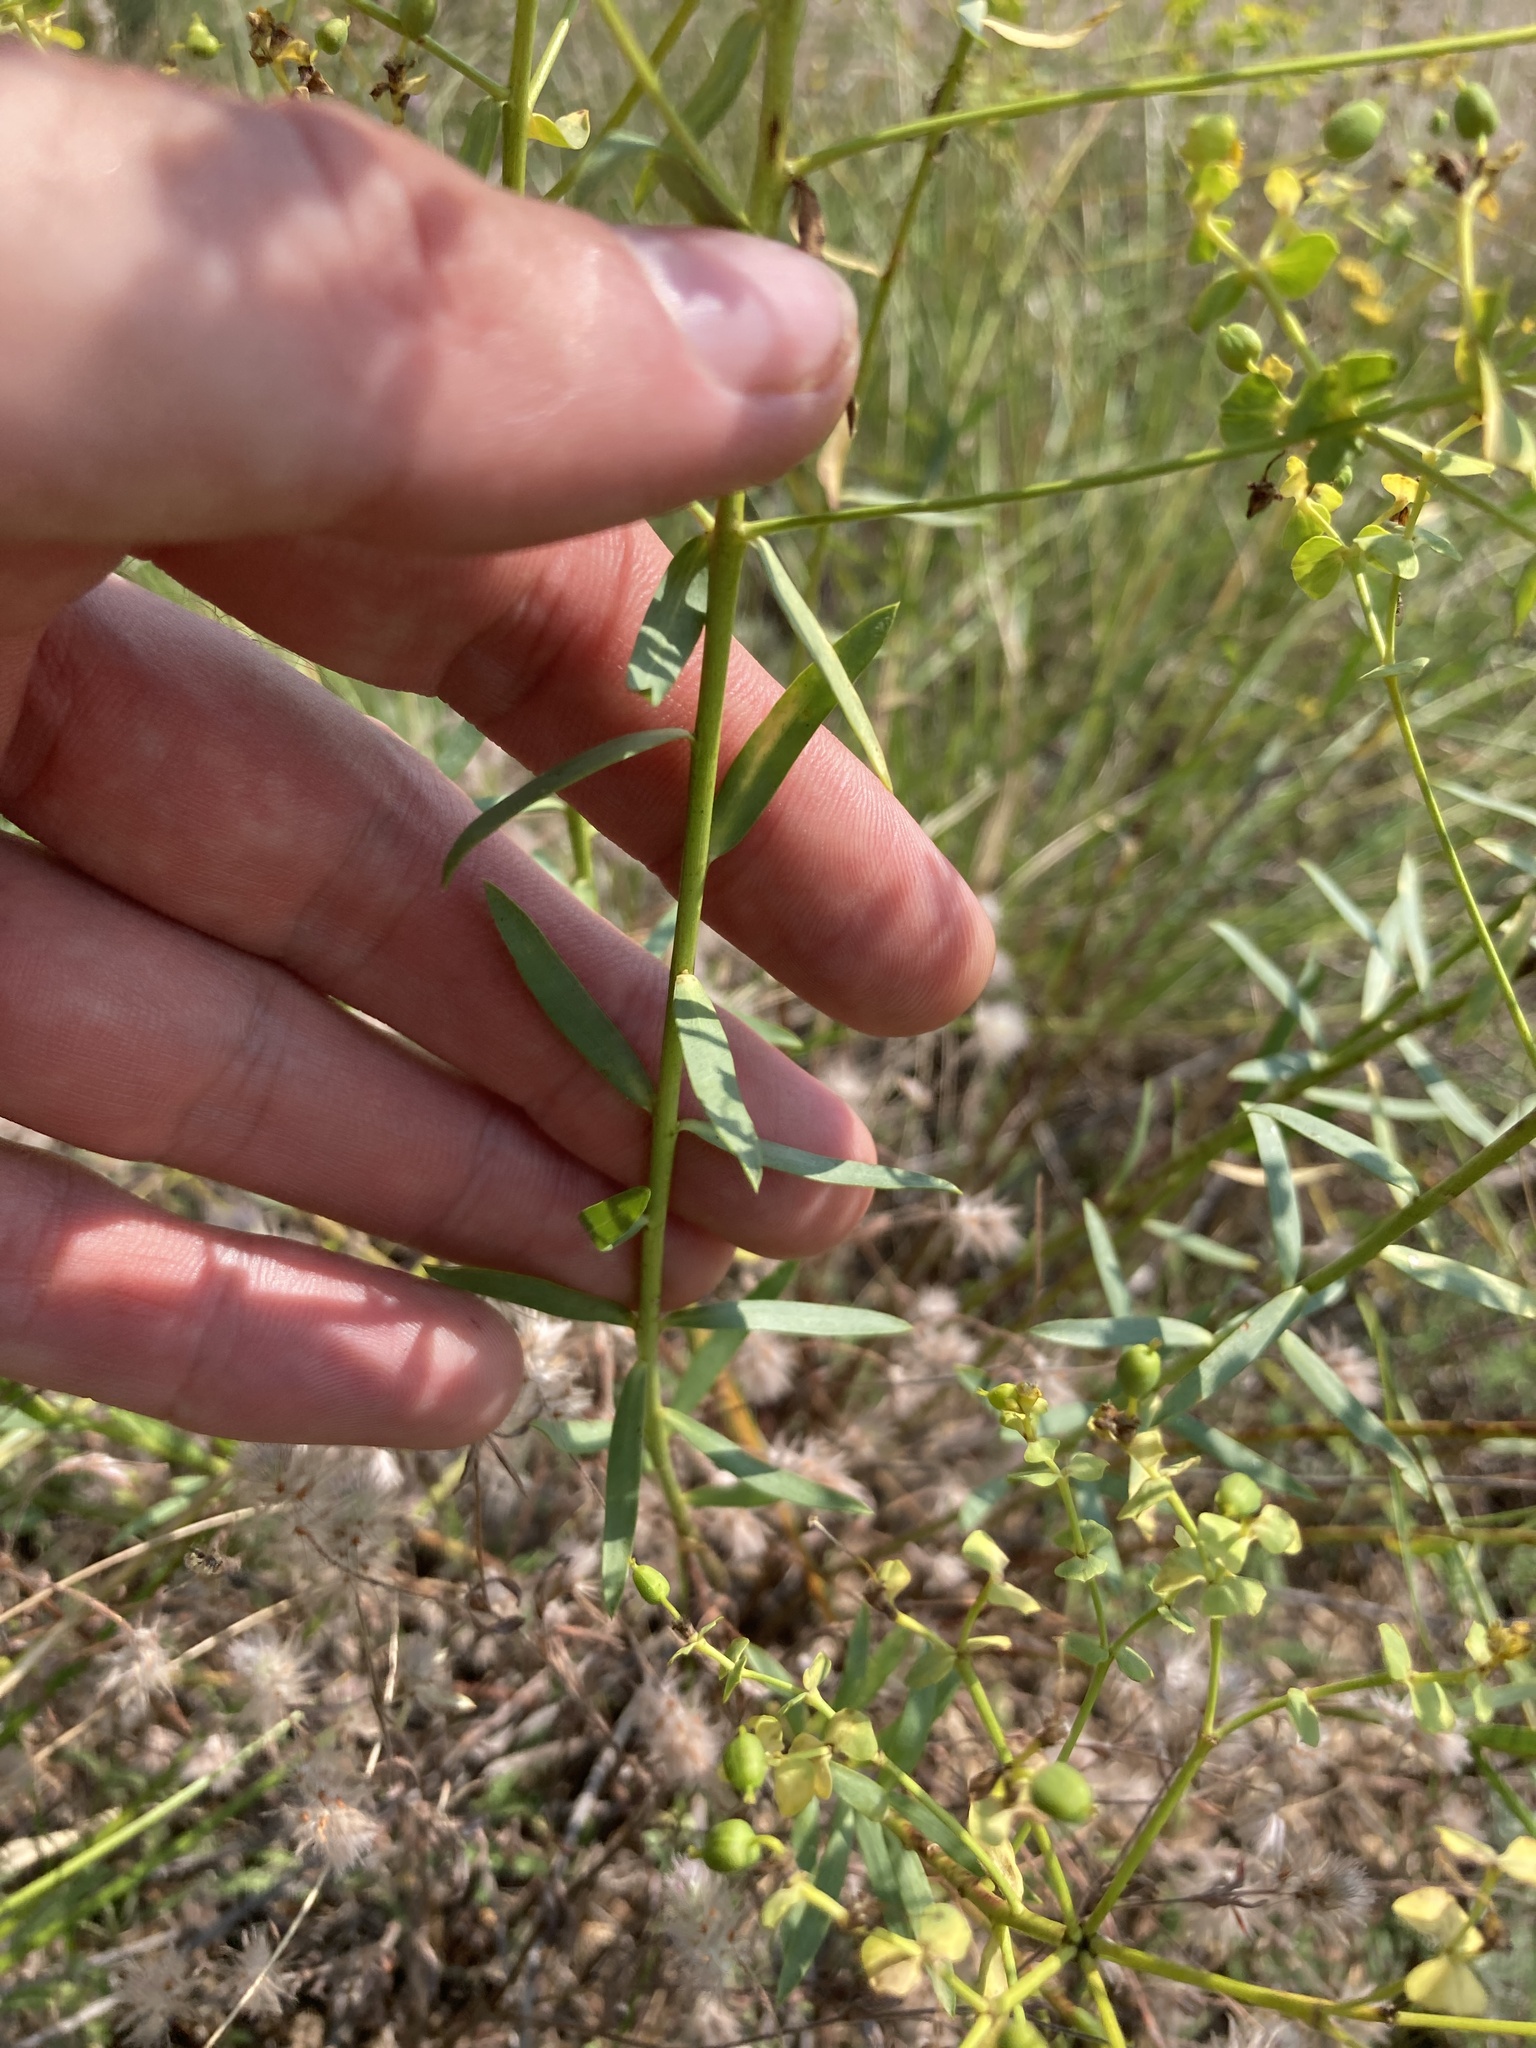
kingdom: Plantae
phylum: Tracheophyta
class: Magnoliopsida
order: Malpighiales
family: Euphorbiaceae
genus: Euphorbia
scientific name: Euphorbia seguieriana
